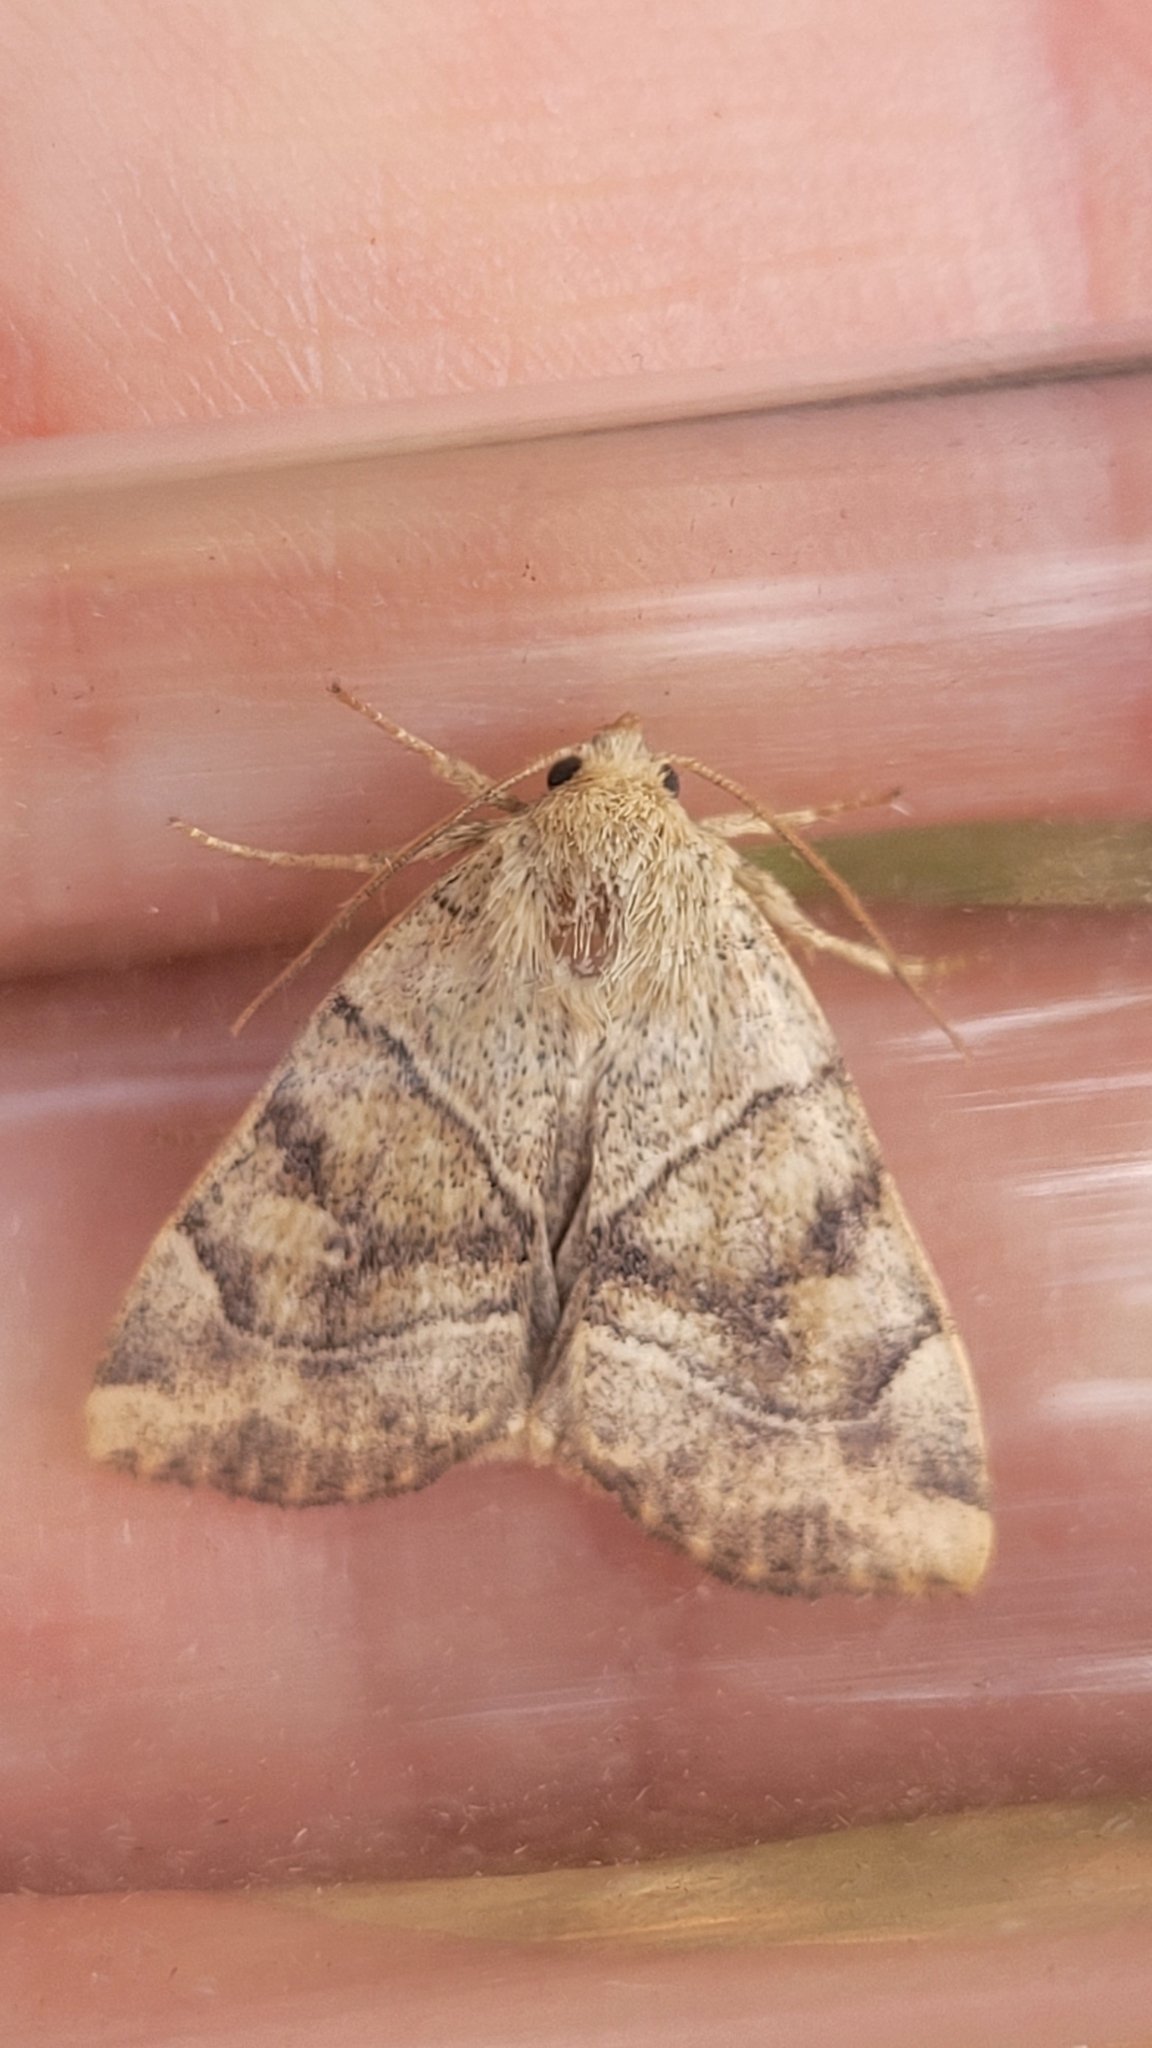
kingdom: Animalia
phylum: Arthropoda
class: Insecta
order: Lepidoptera
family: Noctuidae
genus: Cosmia
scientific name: Cosmia trapezina
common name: Dun-bar
